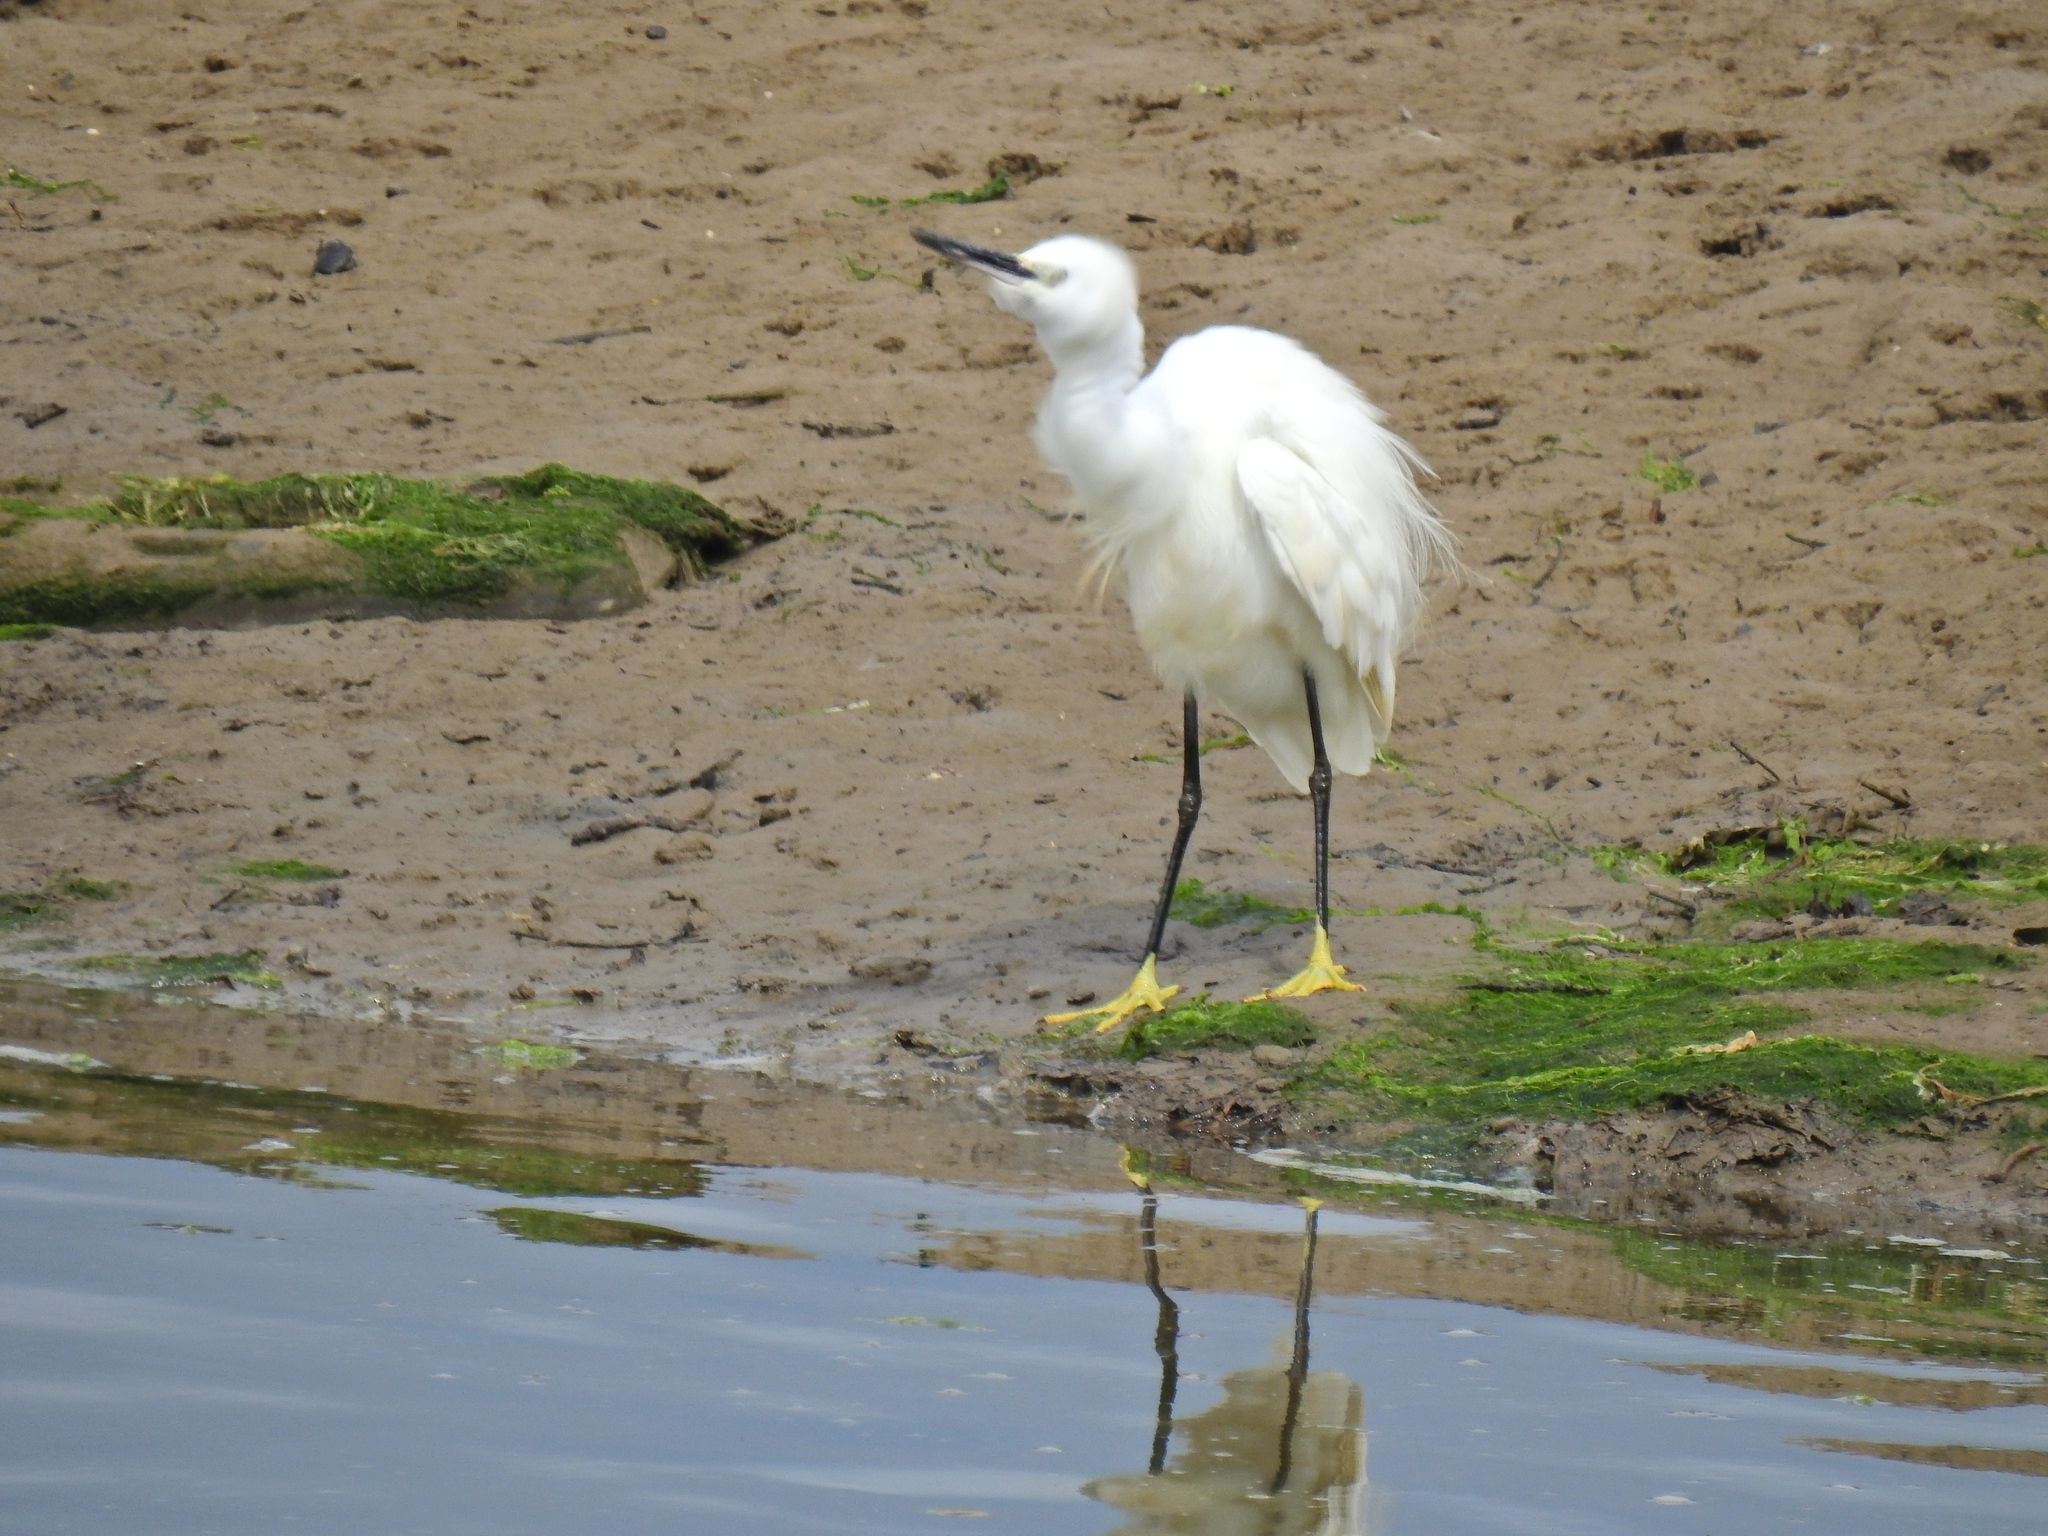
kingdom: Animalia
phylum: Chordata
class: Aves
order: Pelecaniformes
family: Ardeidae
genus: Egretta
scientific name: Egretta garzetta
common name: Little egret
